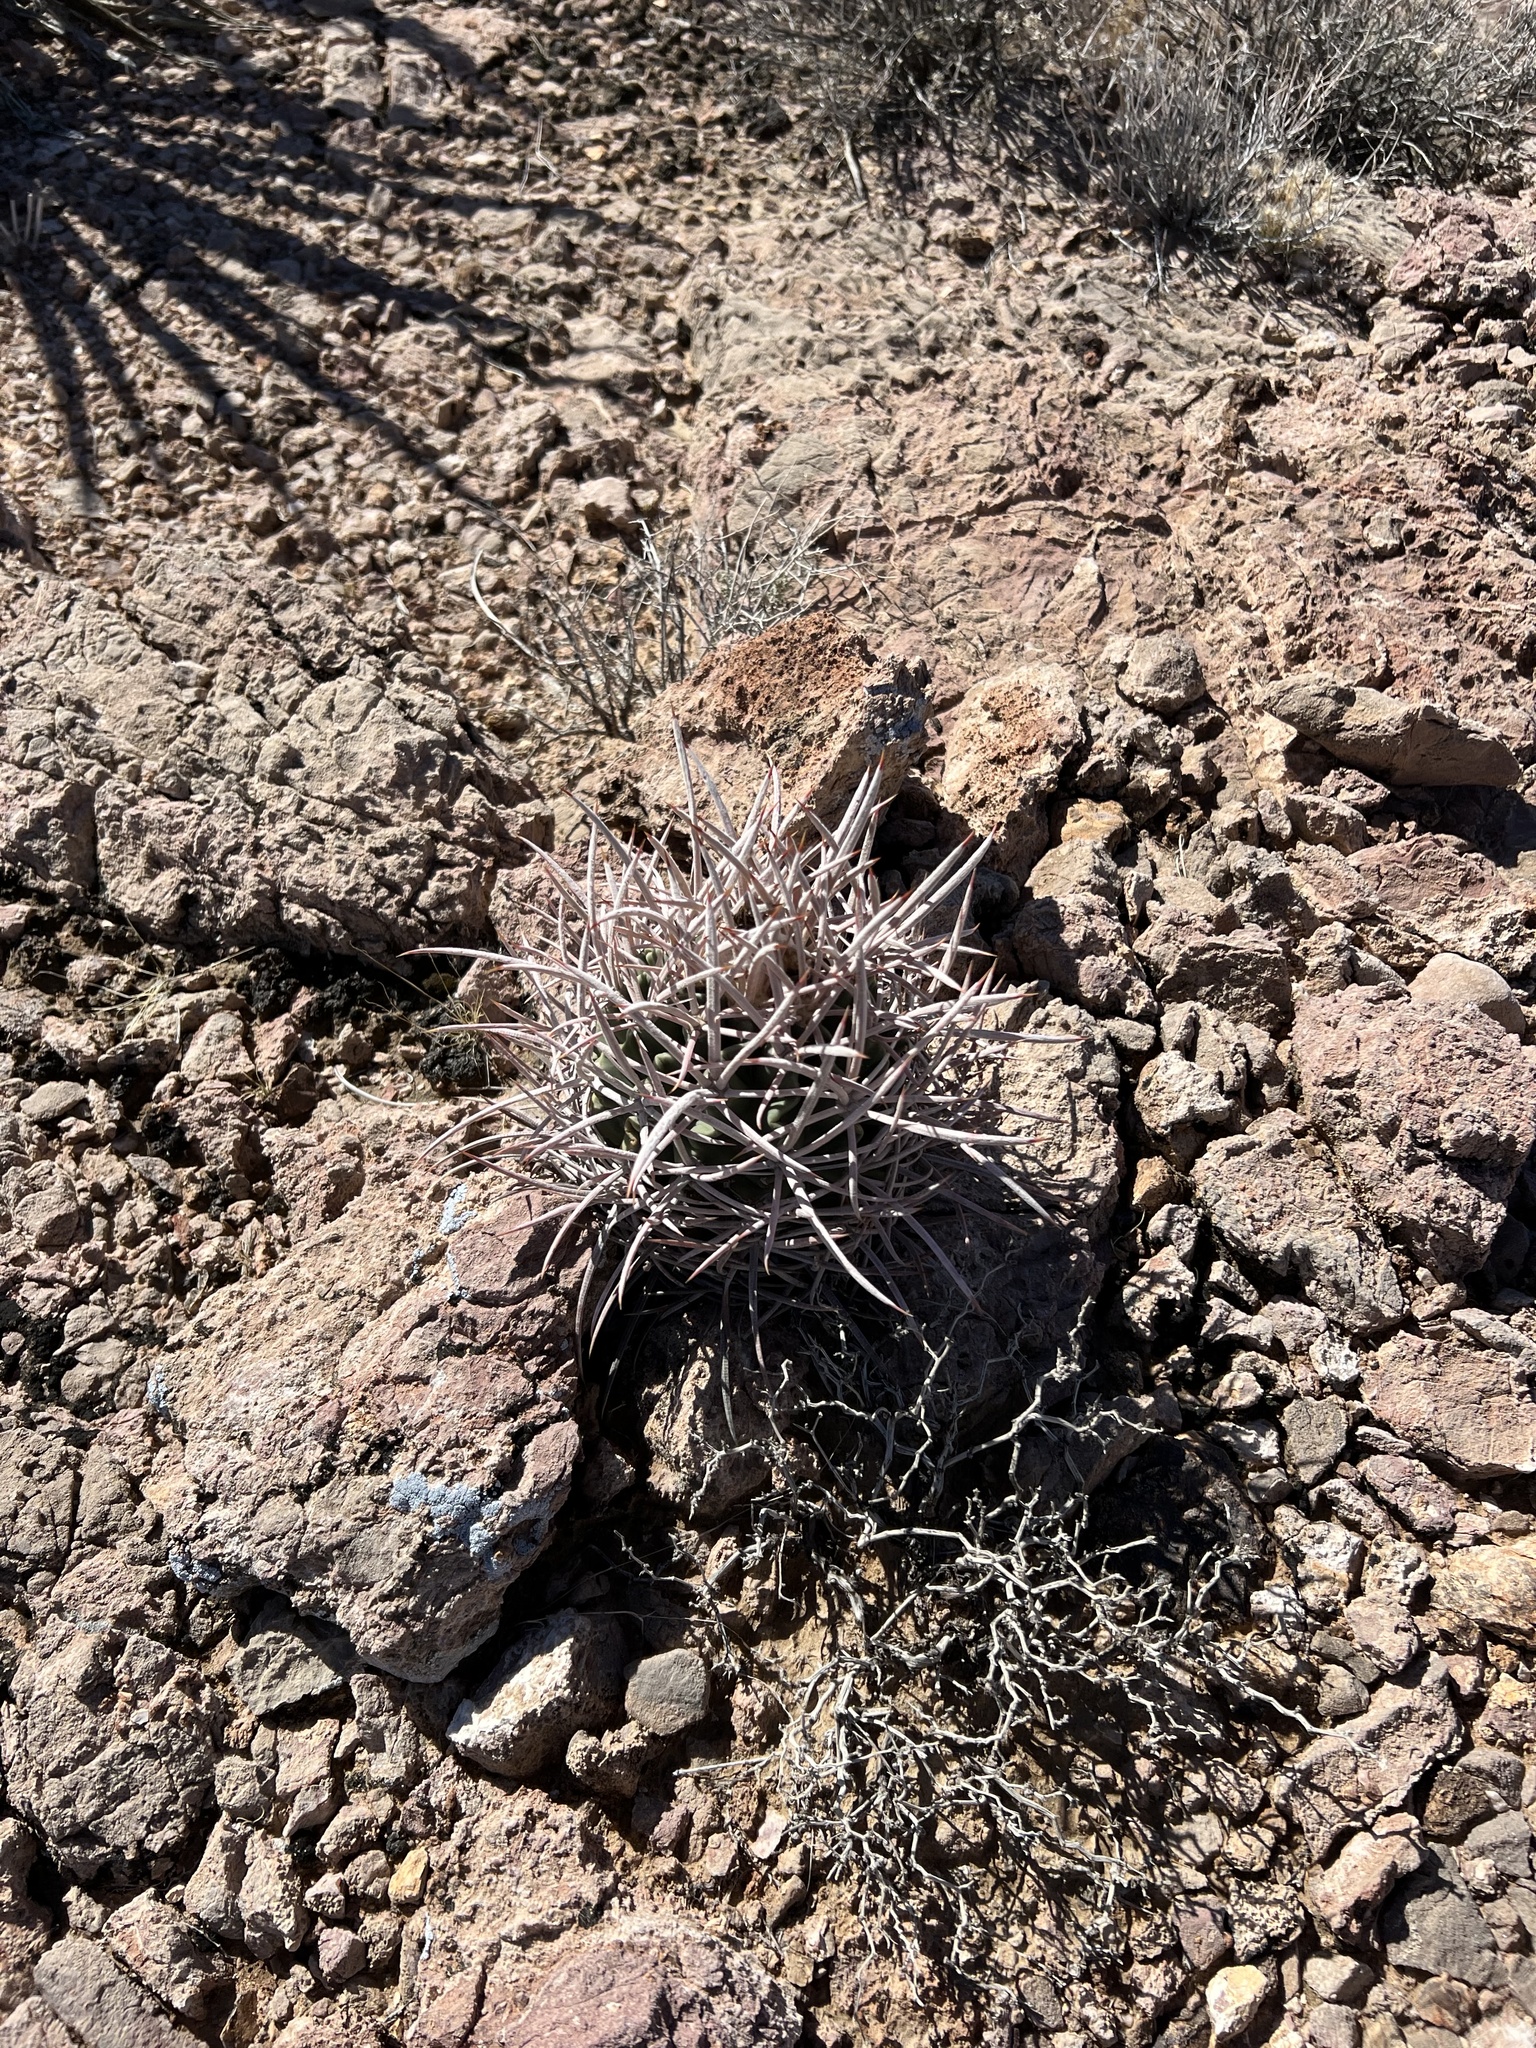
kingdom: Plantae
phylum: Tracheophyta
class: Magnoliopsida
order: Caryophyllales
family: Cactaceae
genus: Echinocactus
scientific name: Echinocactus polycephalus
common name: Cottontop cactus
